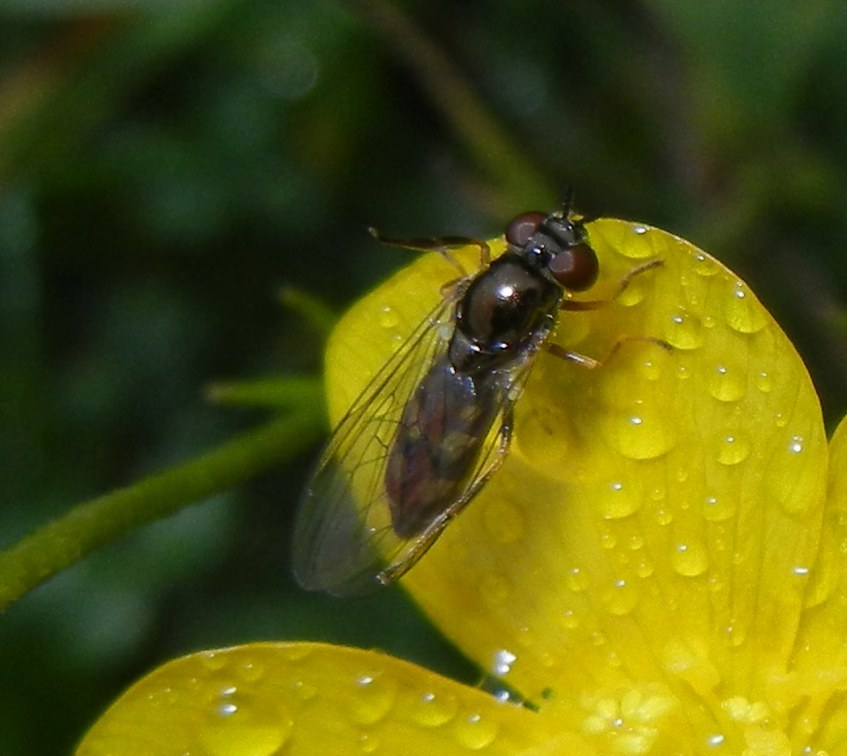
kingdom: Animalia
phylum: Arthropoda
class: Insecta
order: Diptera
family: Syrphidae
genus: Melanostoma
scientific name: Melanostoma mellina
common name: Hover fly
